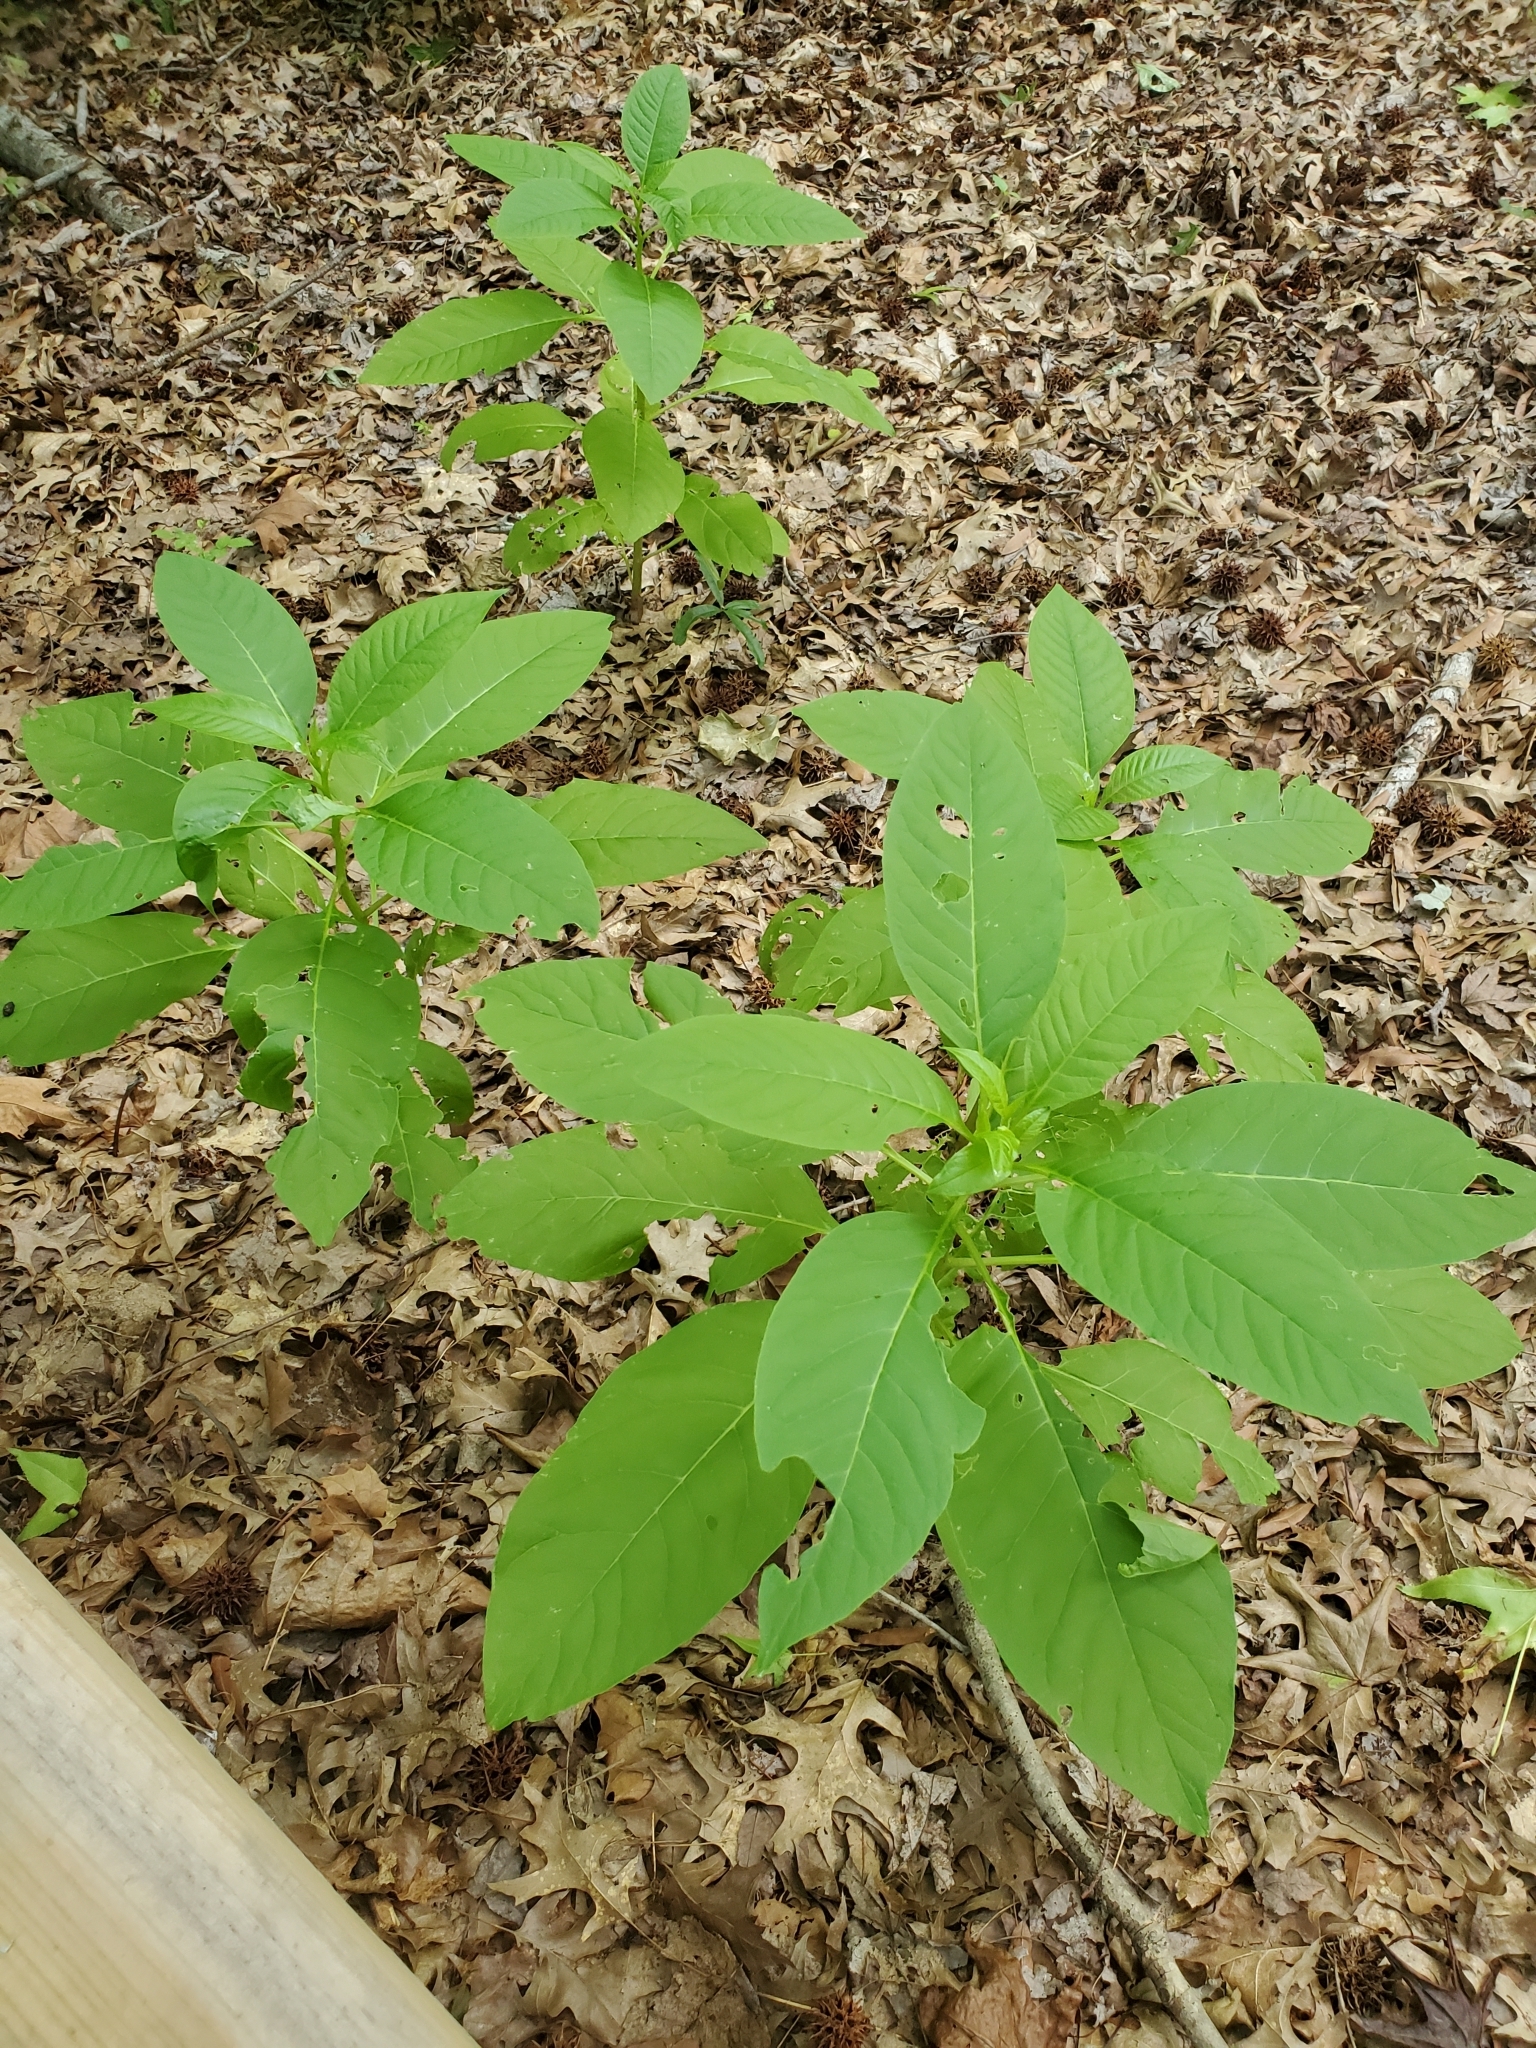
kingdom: Plantae
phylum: Tracheophyta
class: Magnoliopsida
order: Caryophyllales
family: Phytolaccaceae
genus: Phytolacca
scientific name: Phytolacca americana
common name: American pokeweed
